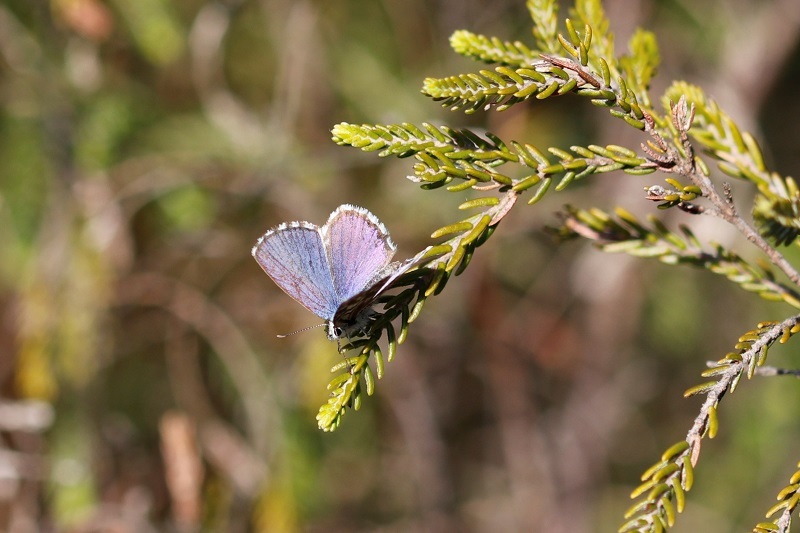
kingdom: Animalia
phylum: Arthropoda
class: Insecta
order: Lepidoptera
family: Lycaenidae
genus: Tarucus
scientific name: Tarucus thespis
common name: Vivid dotted blue
